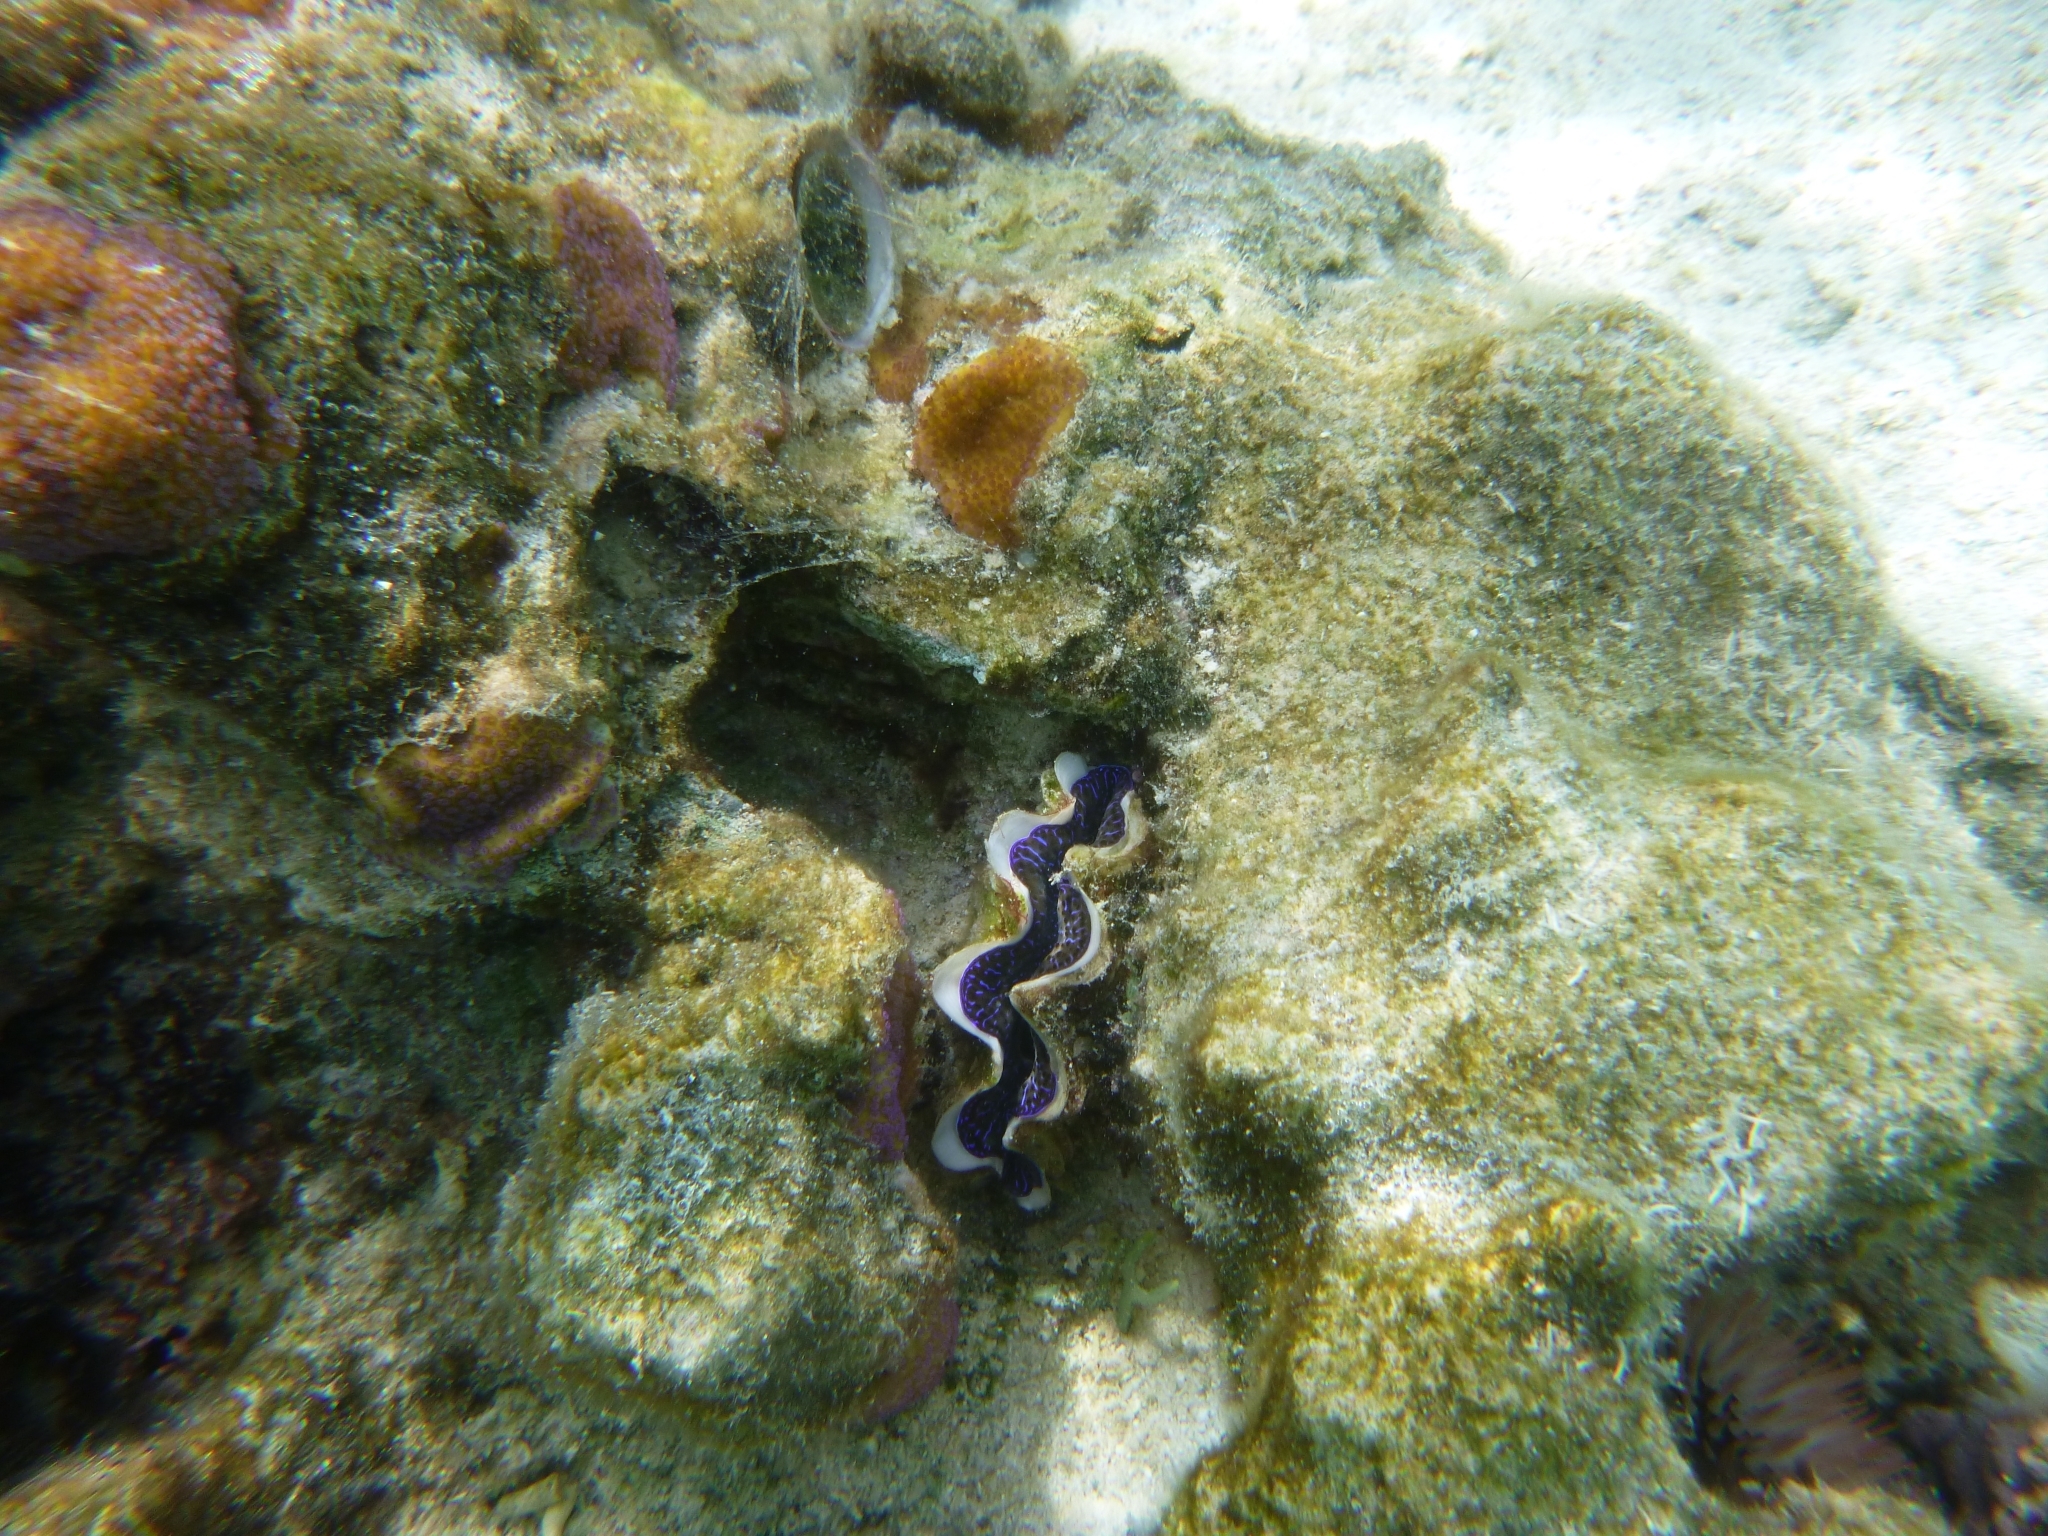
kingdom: Animalia
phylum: Mollusca
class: Bivalvia
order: Cardiida
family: Cardiidae
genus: Tridacna
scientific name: Tridacna maxima
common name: Small giant clam
